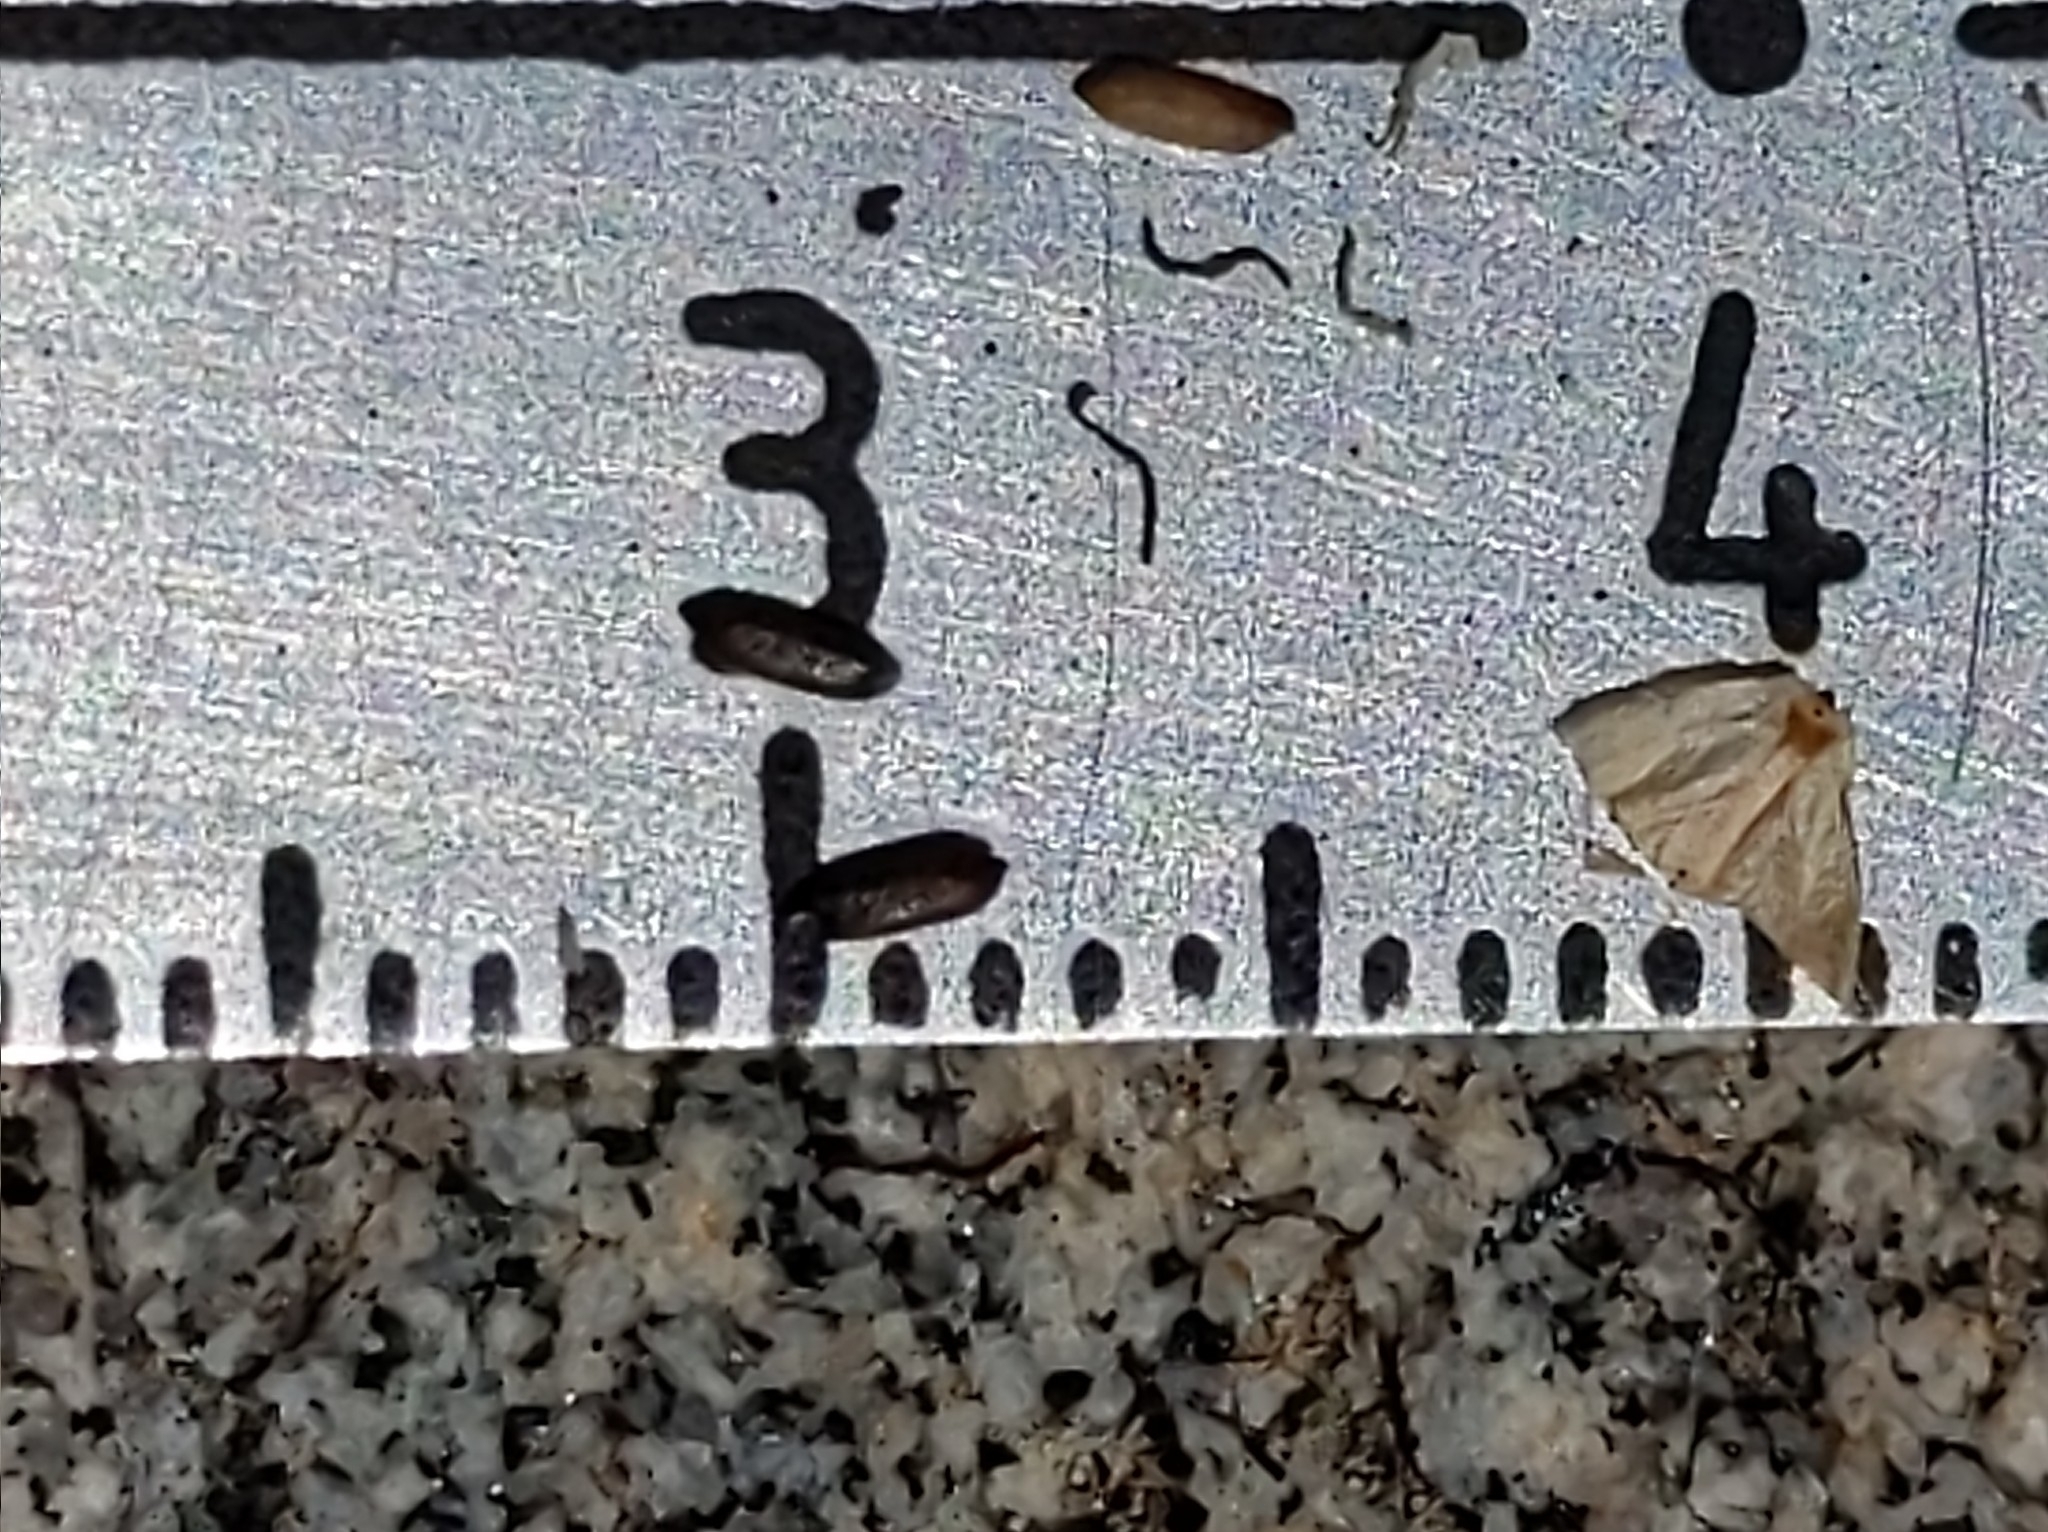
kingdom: Plantae
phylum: Tracheophyta
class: Magnoliopsida
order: Lamiales
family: Lamiaceae
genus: Monardella
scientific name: Monardella australis
